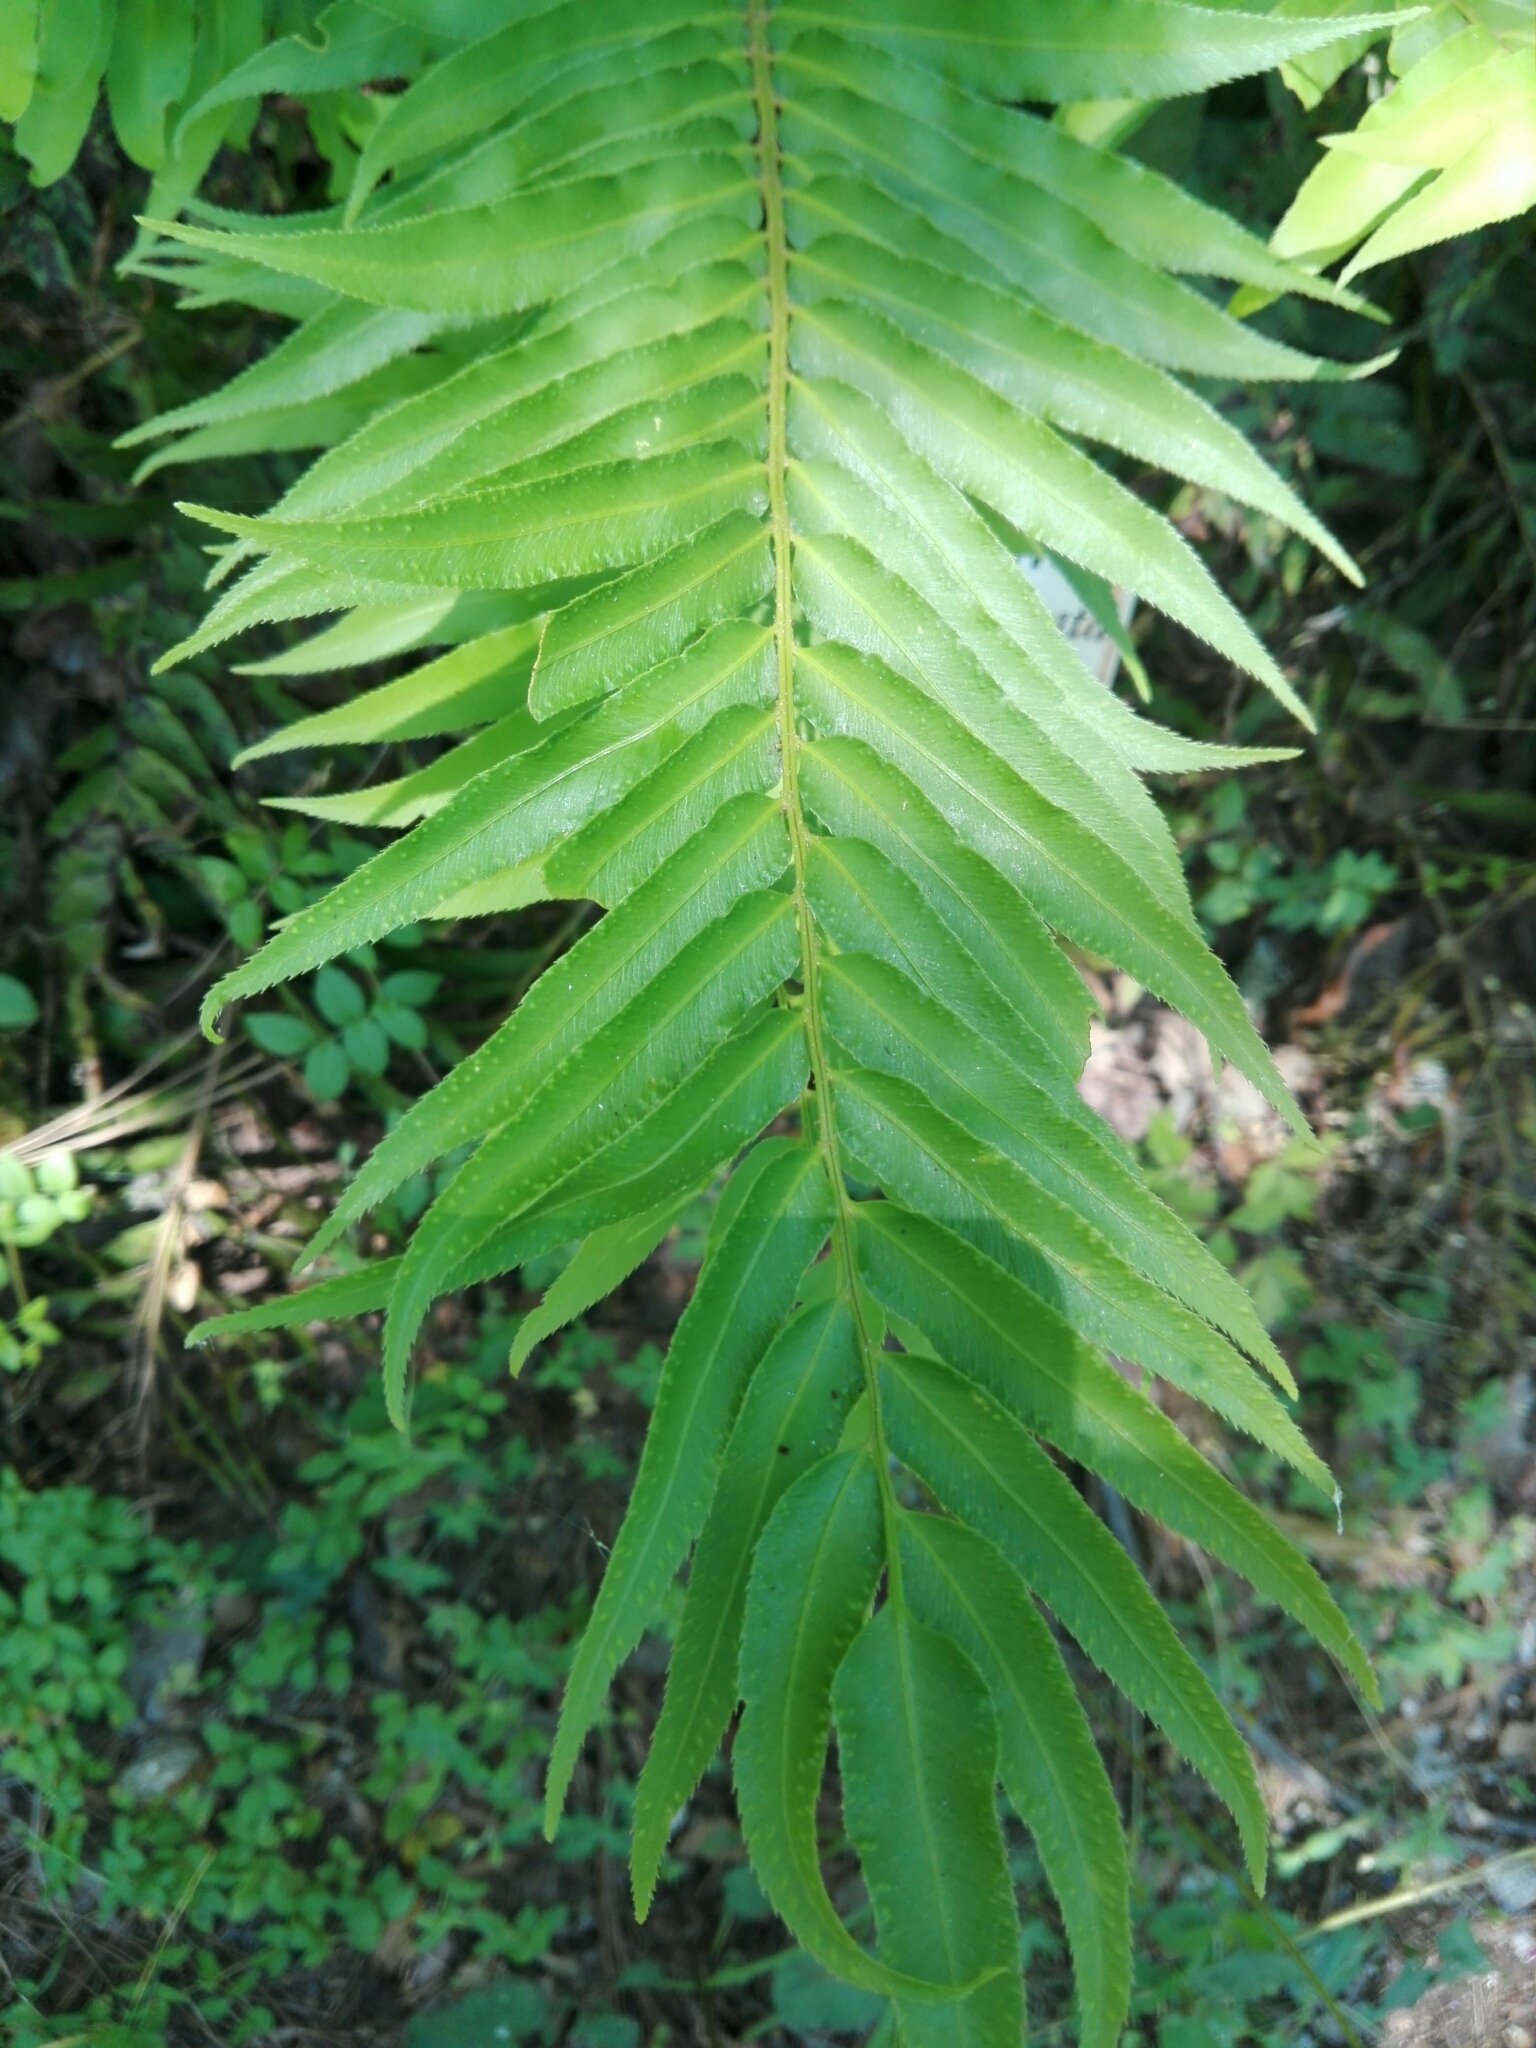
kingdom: Plantae
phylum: Tracheophyta
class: Polypodiopsida
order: Polypodiales
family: Dryopteridaceae
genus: Phanerophlebia
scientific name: Phanerophlebia umbonata
